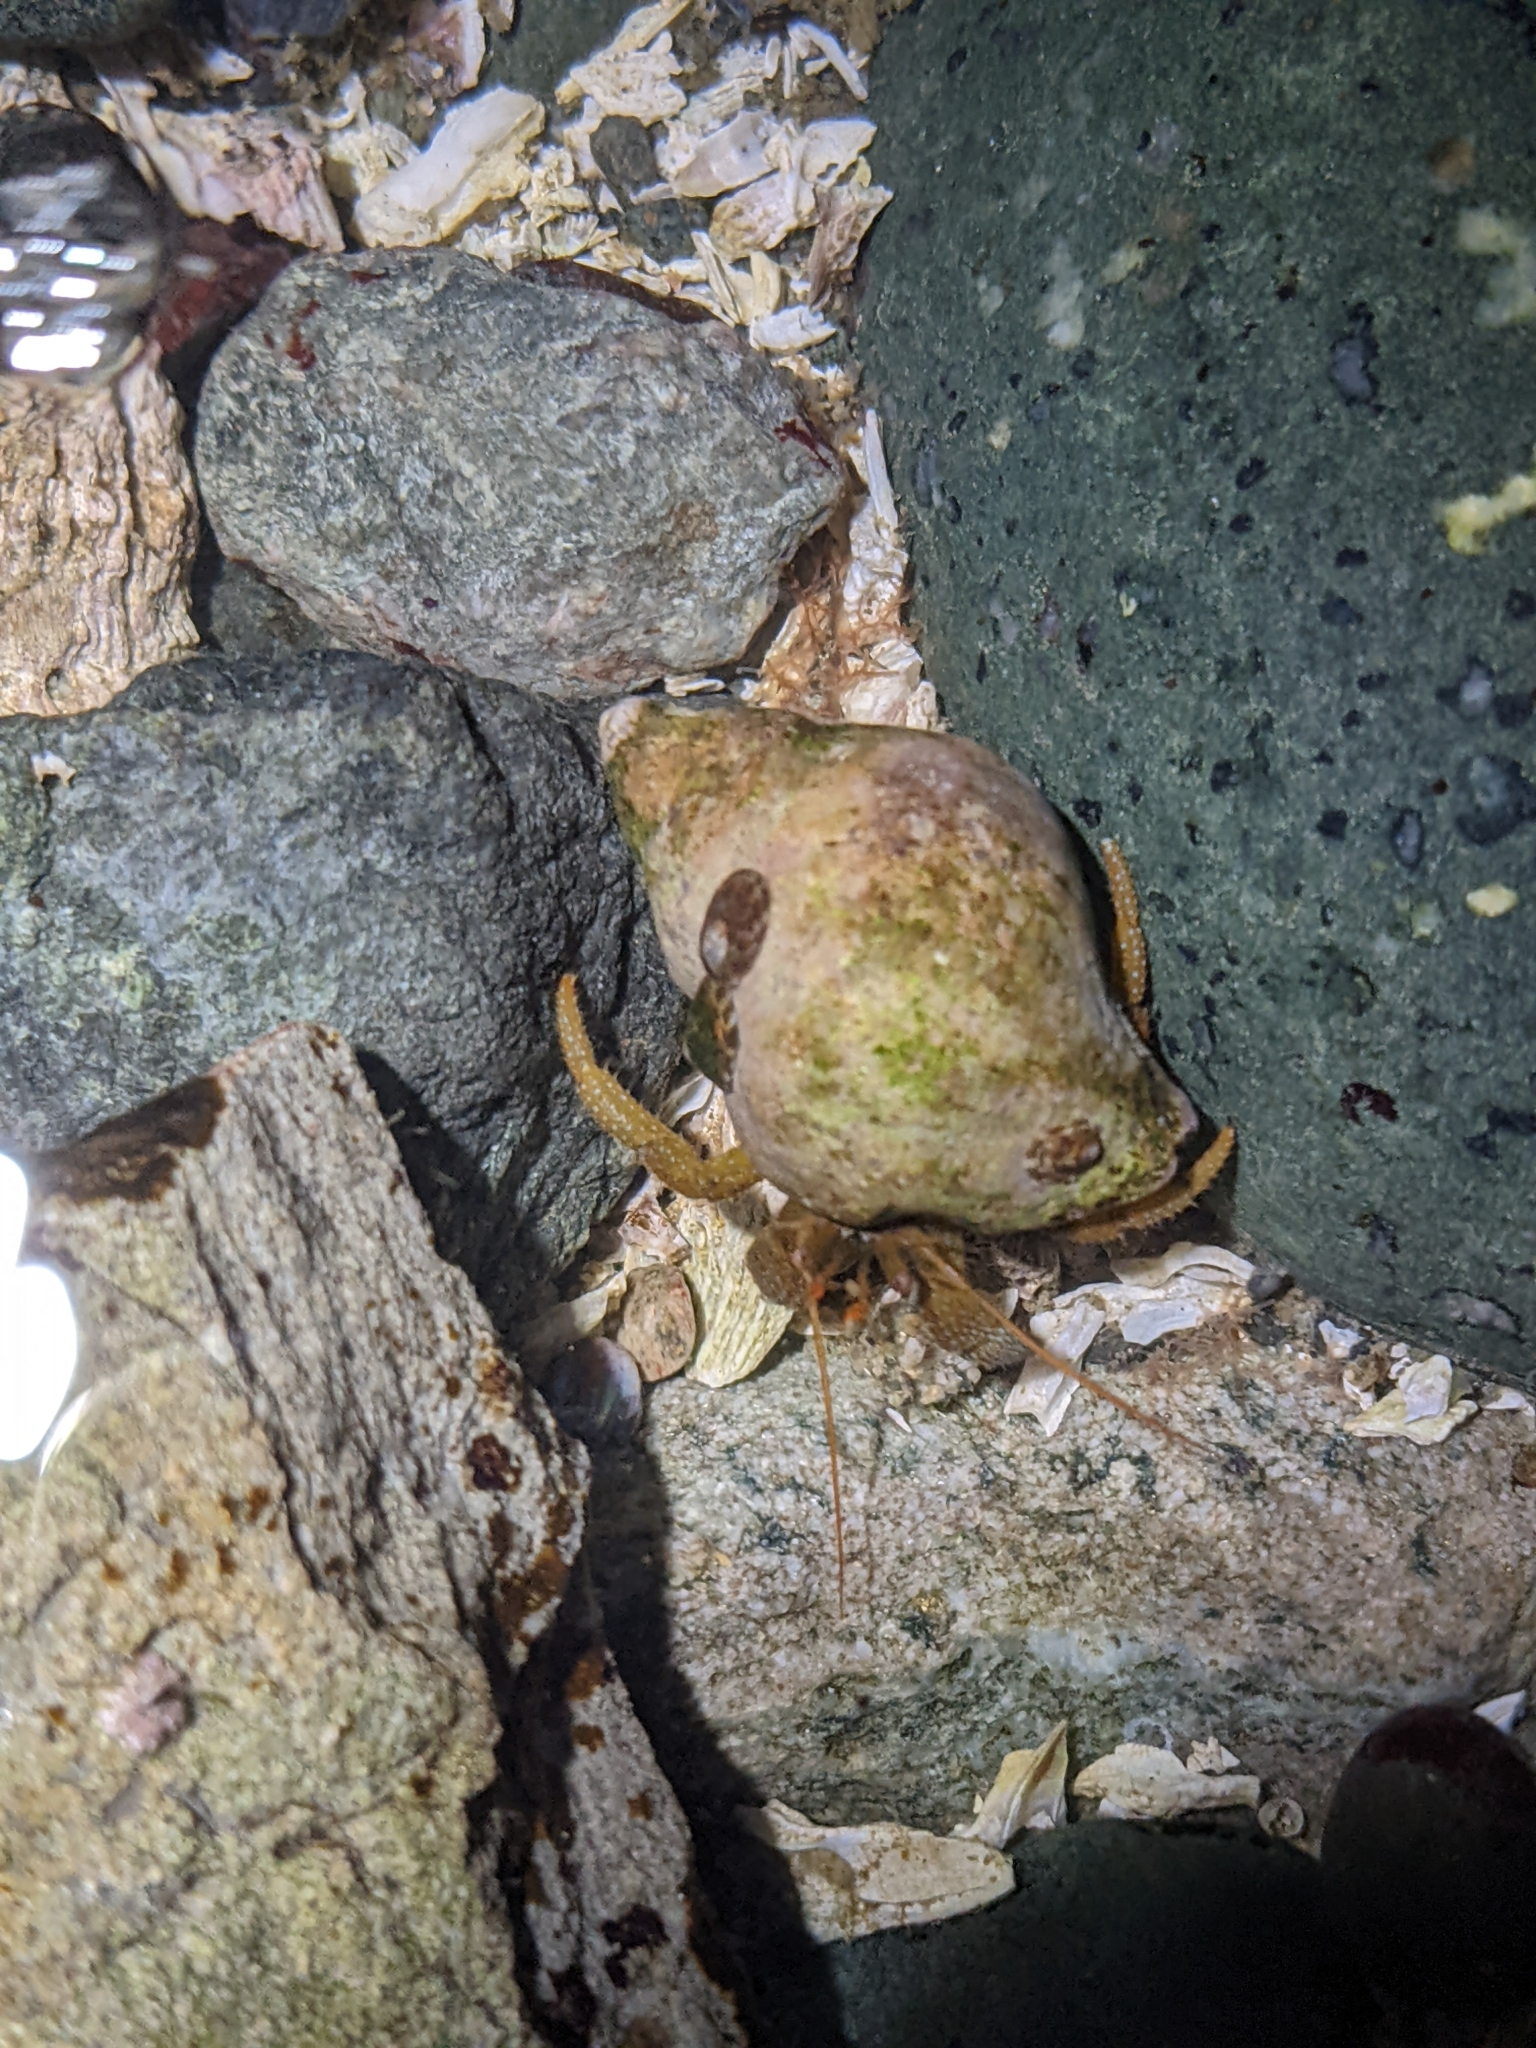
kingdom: Animalia
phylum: Arthropoda
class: Malacostraca
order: Decapoda
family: Paguridae
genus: Pagurus
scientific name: Pagurus granosimanus
